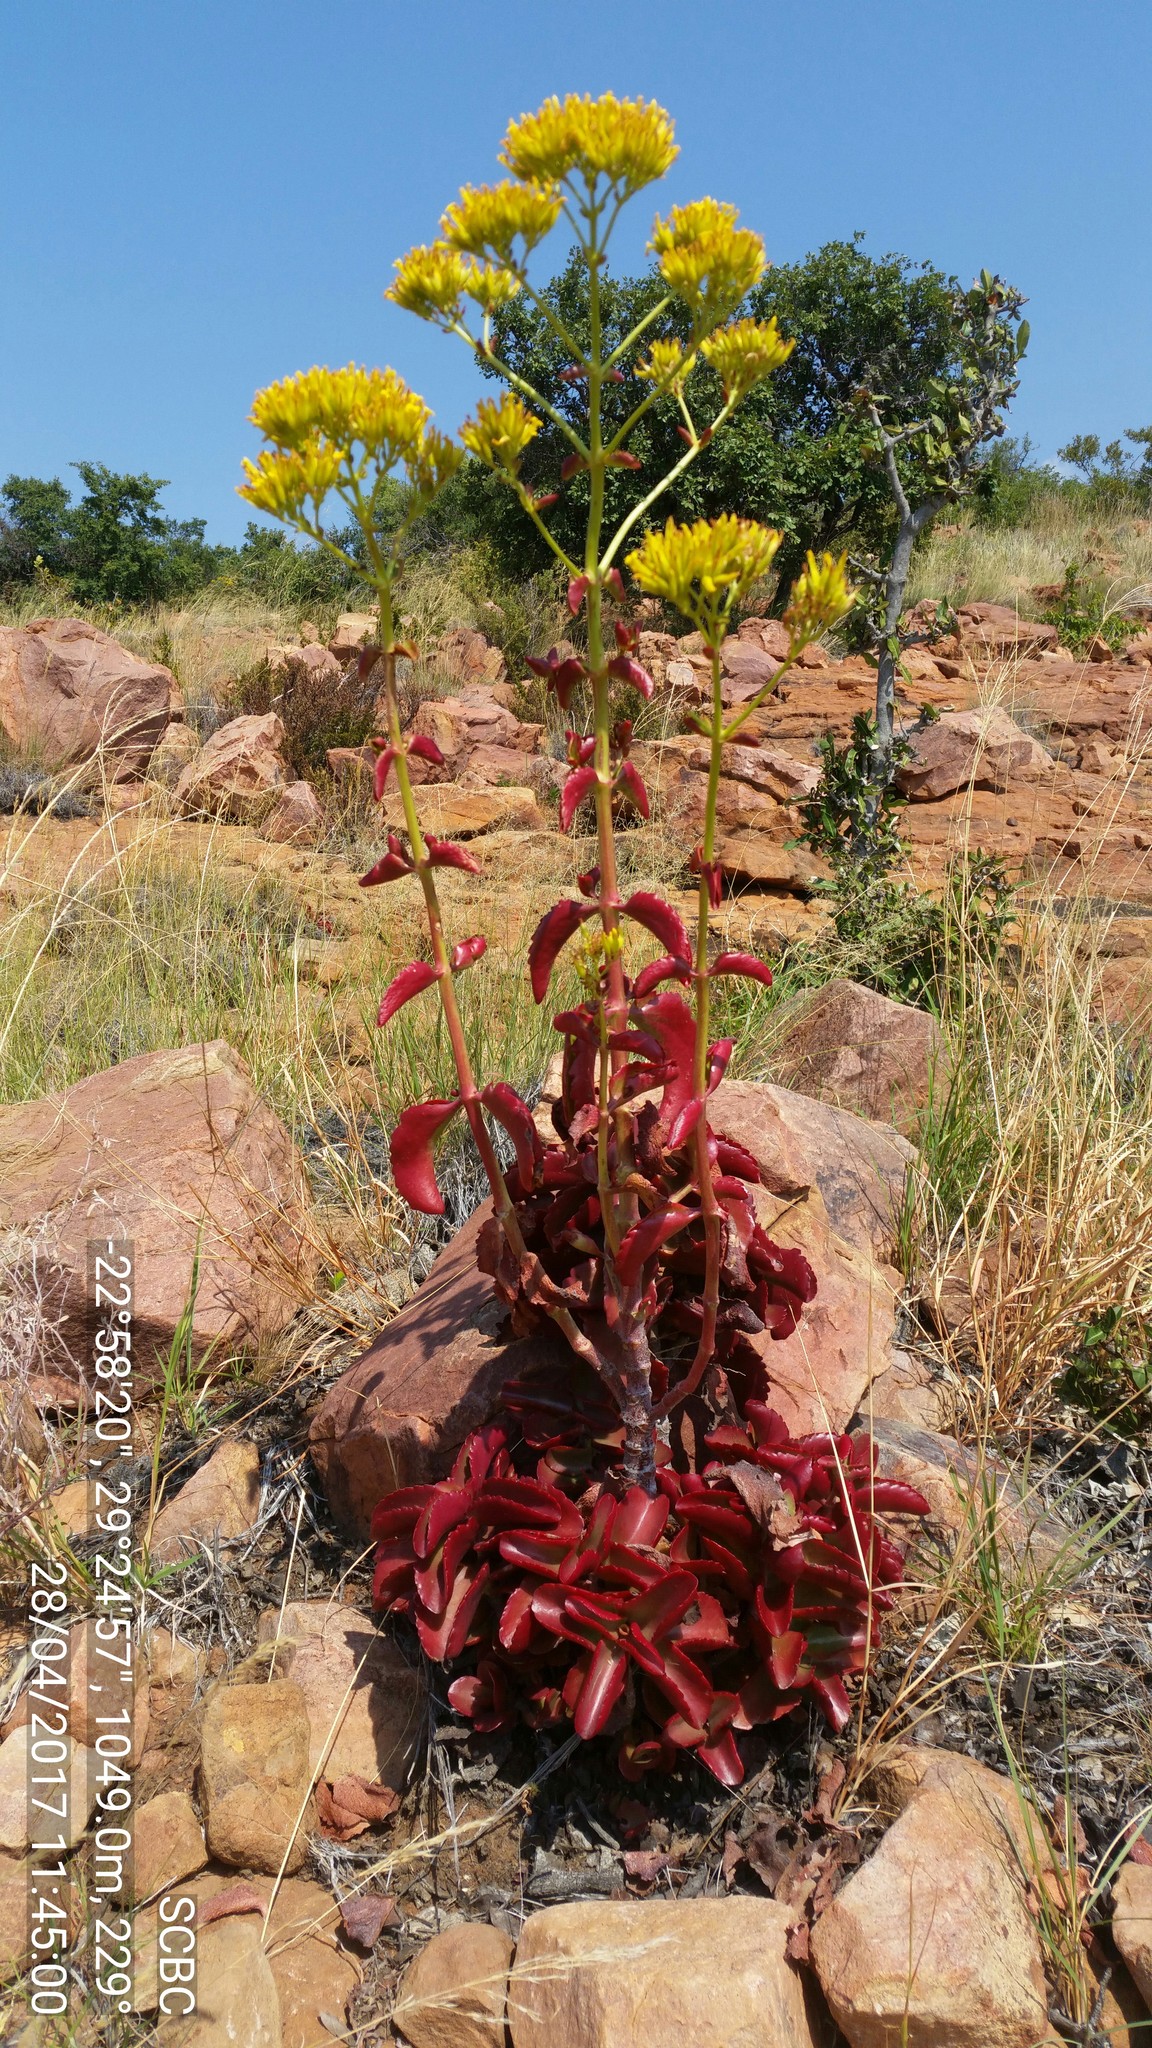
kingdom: Plantae
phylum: Tracheophyta
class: Magnoliopsida
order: Saxifragales
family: Crassulaceae
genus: Kalanchoe
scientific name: Kalanchoe sexangularis
